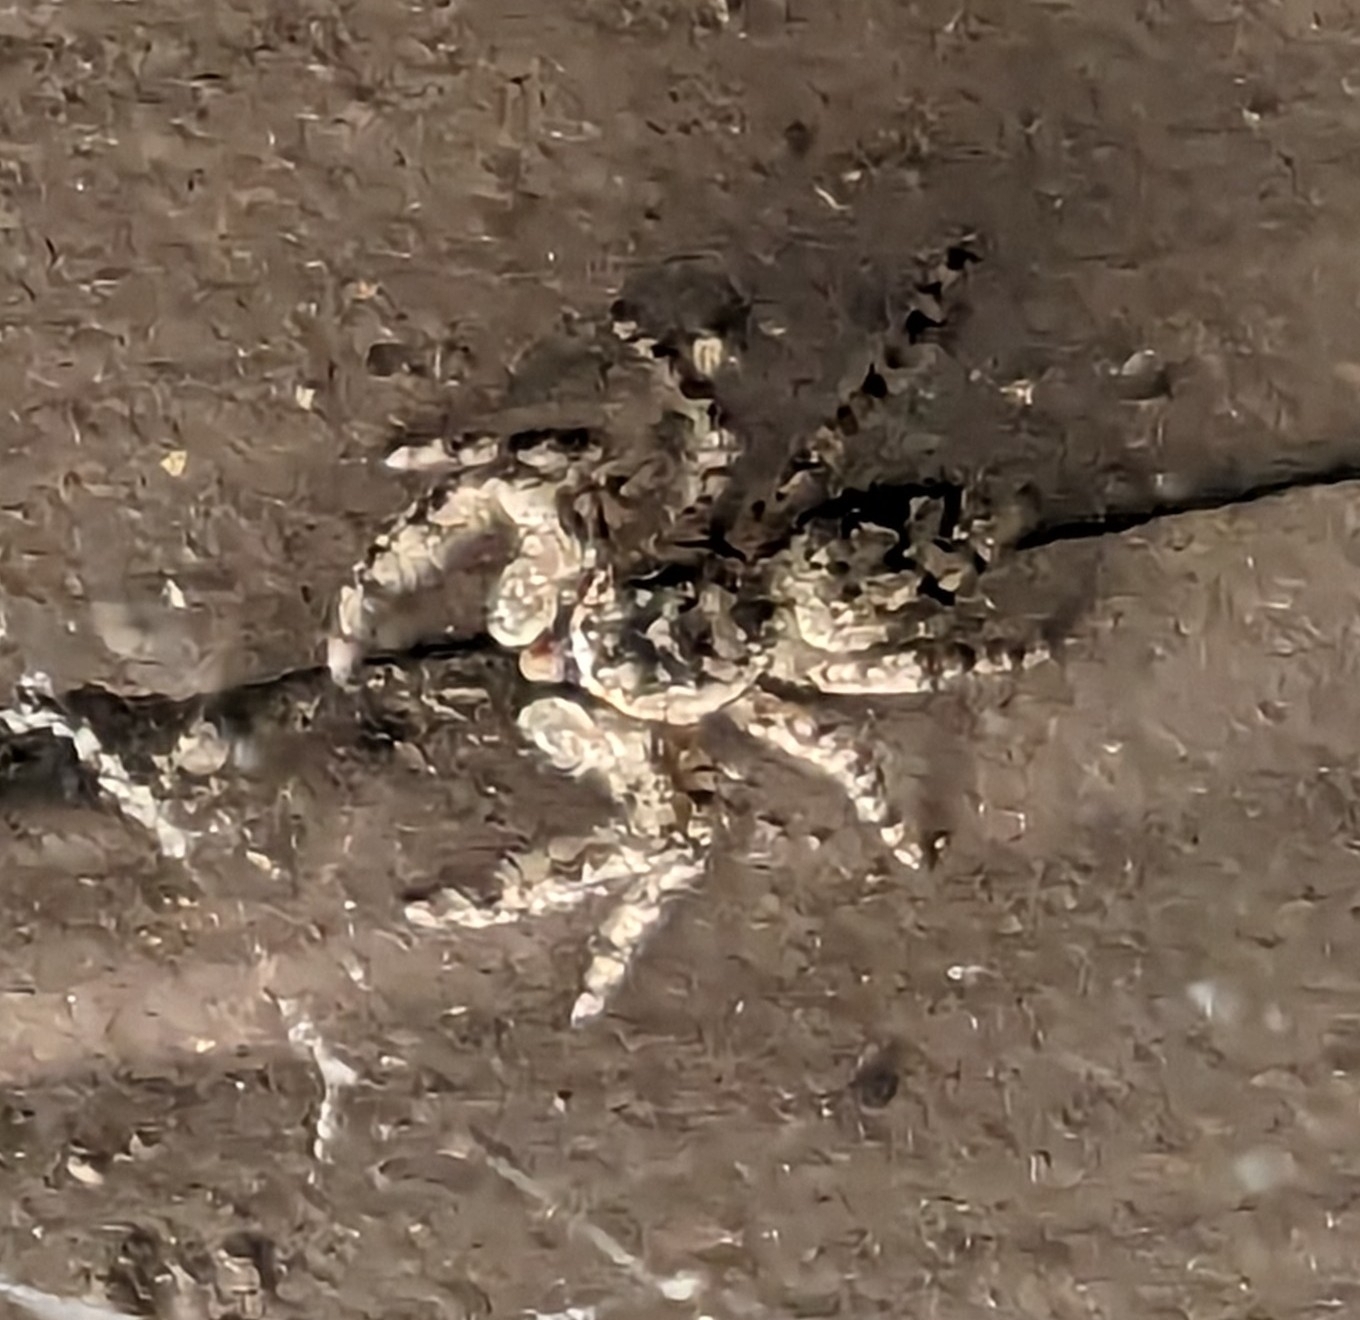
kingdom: Animalia
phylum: Arthropoda
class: Arachnida
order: Araneae
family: Salticidae
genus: Platycryptus
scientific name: Platycryptus undatus
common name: Tan jumping spider
